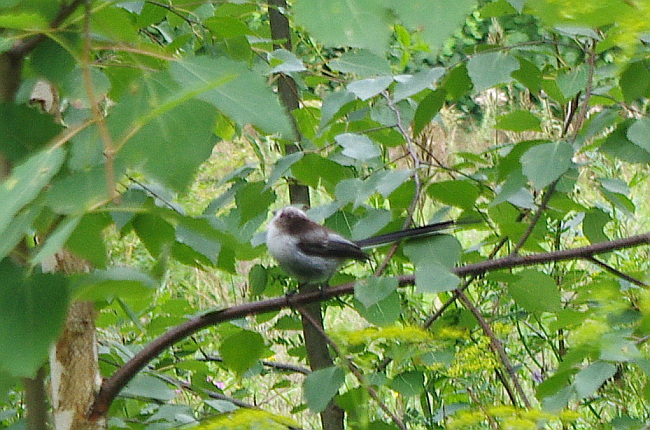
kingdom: Animalia
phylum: Chordata
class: Aves
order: Passeriformes
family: Aegithalidae
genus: Aegithalos
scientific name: Aegithalos caudatus
